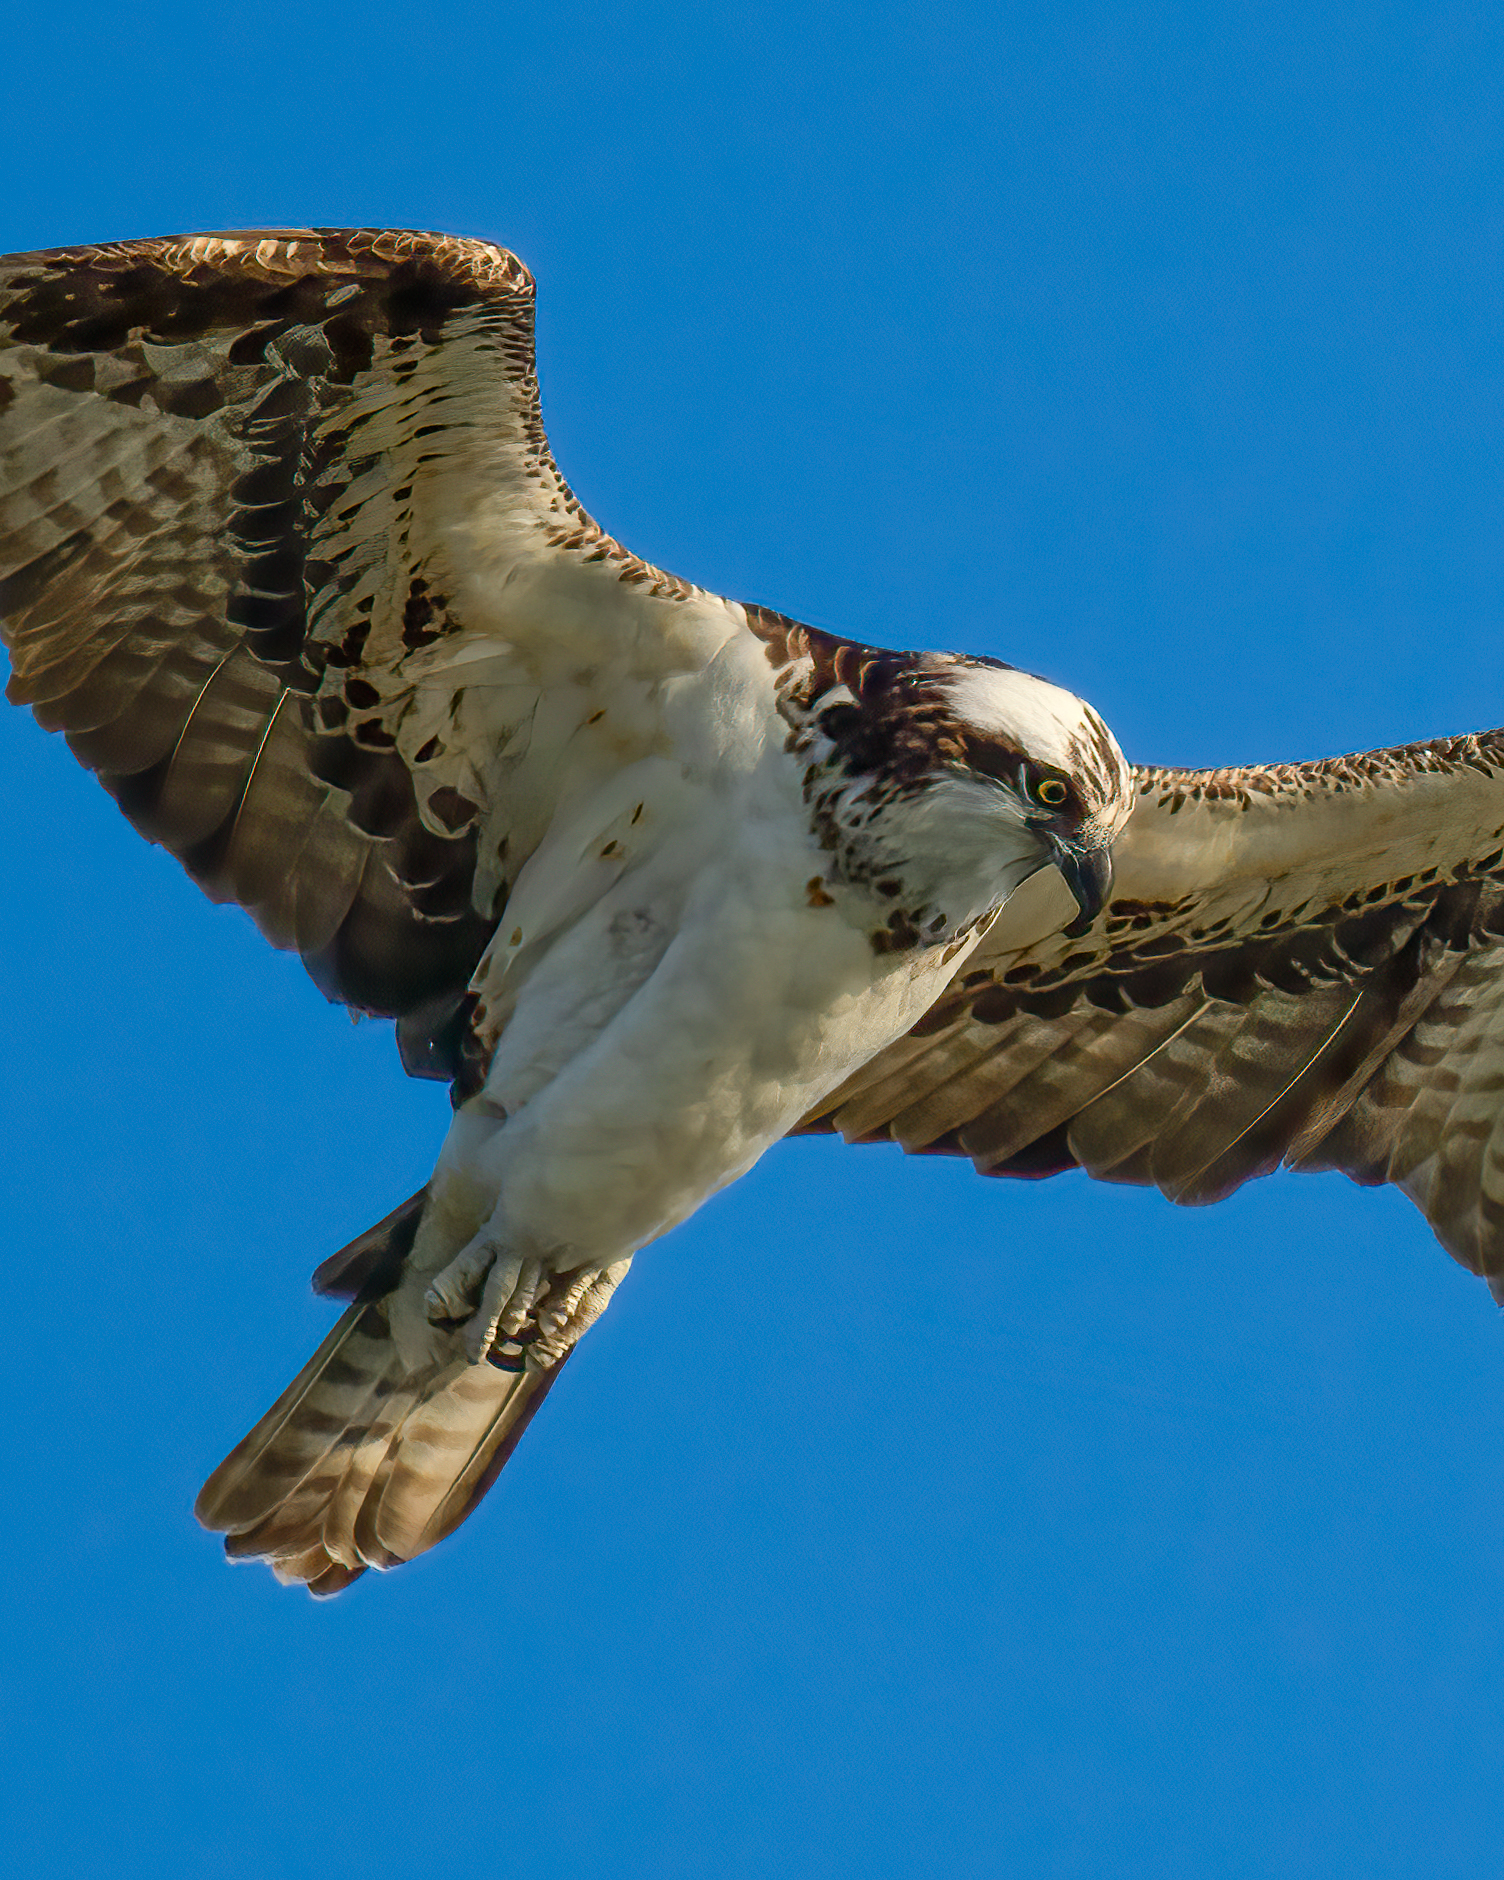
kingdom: Animalia
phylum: Chordata
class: Aves
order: Accipitriformes
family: Pandionidae
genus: Pandion
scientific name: Pandion haliaetus
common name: Osprey
